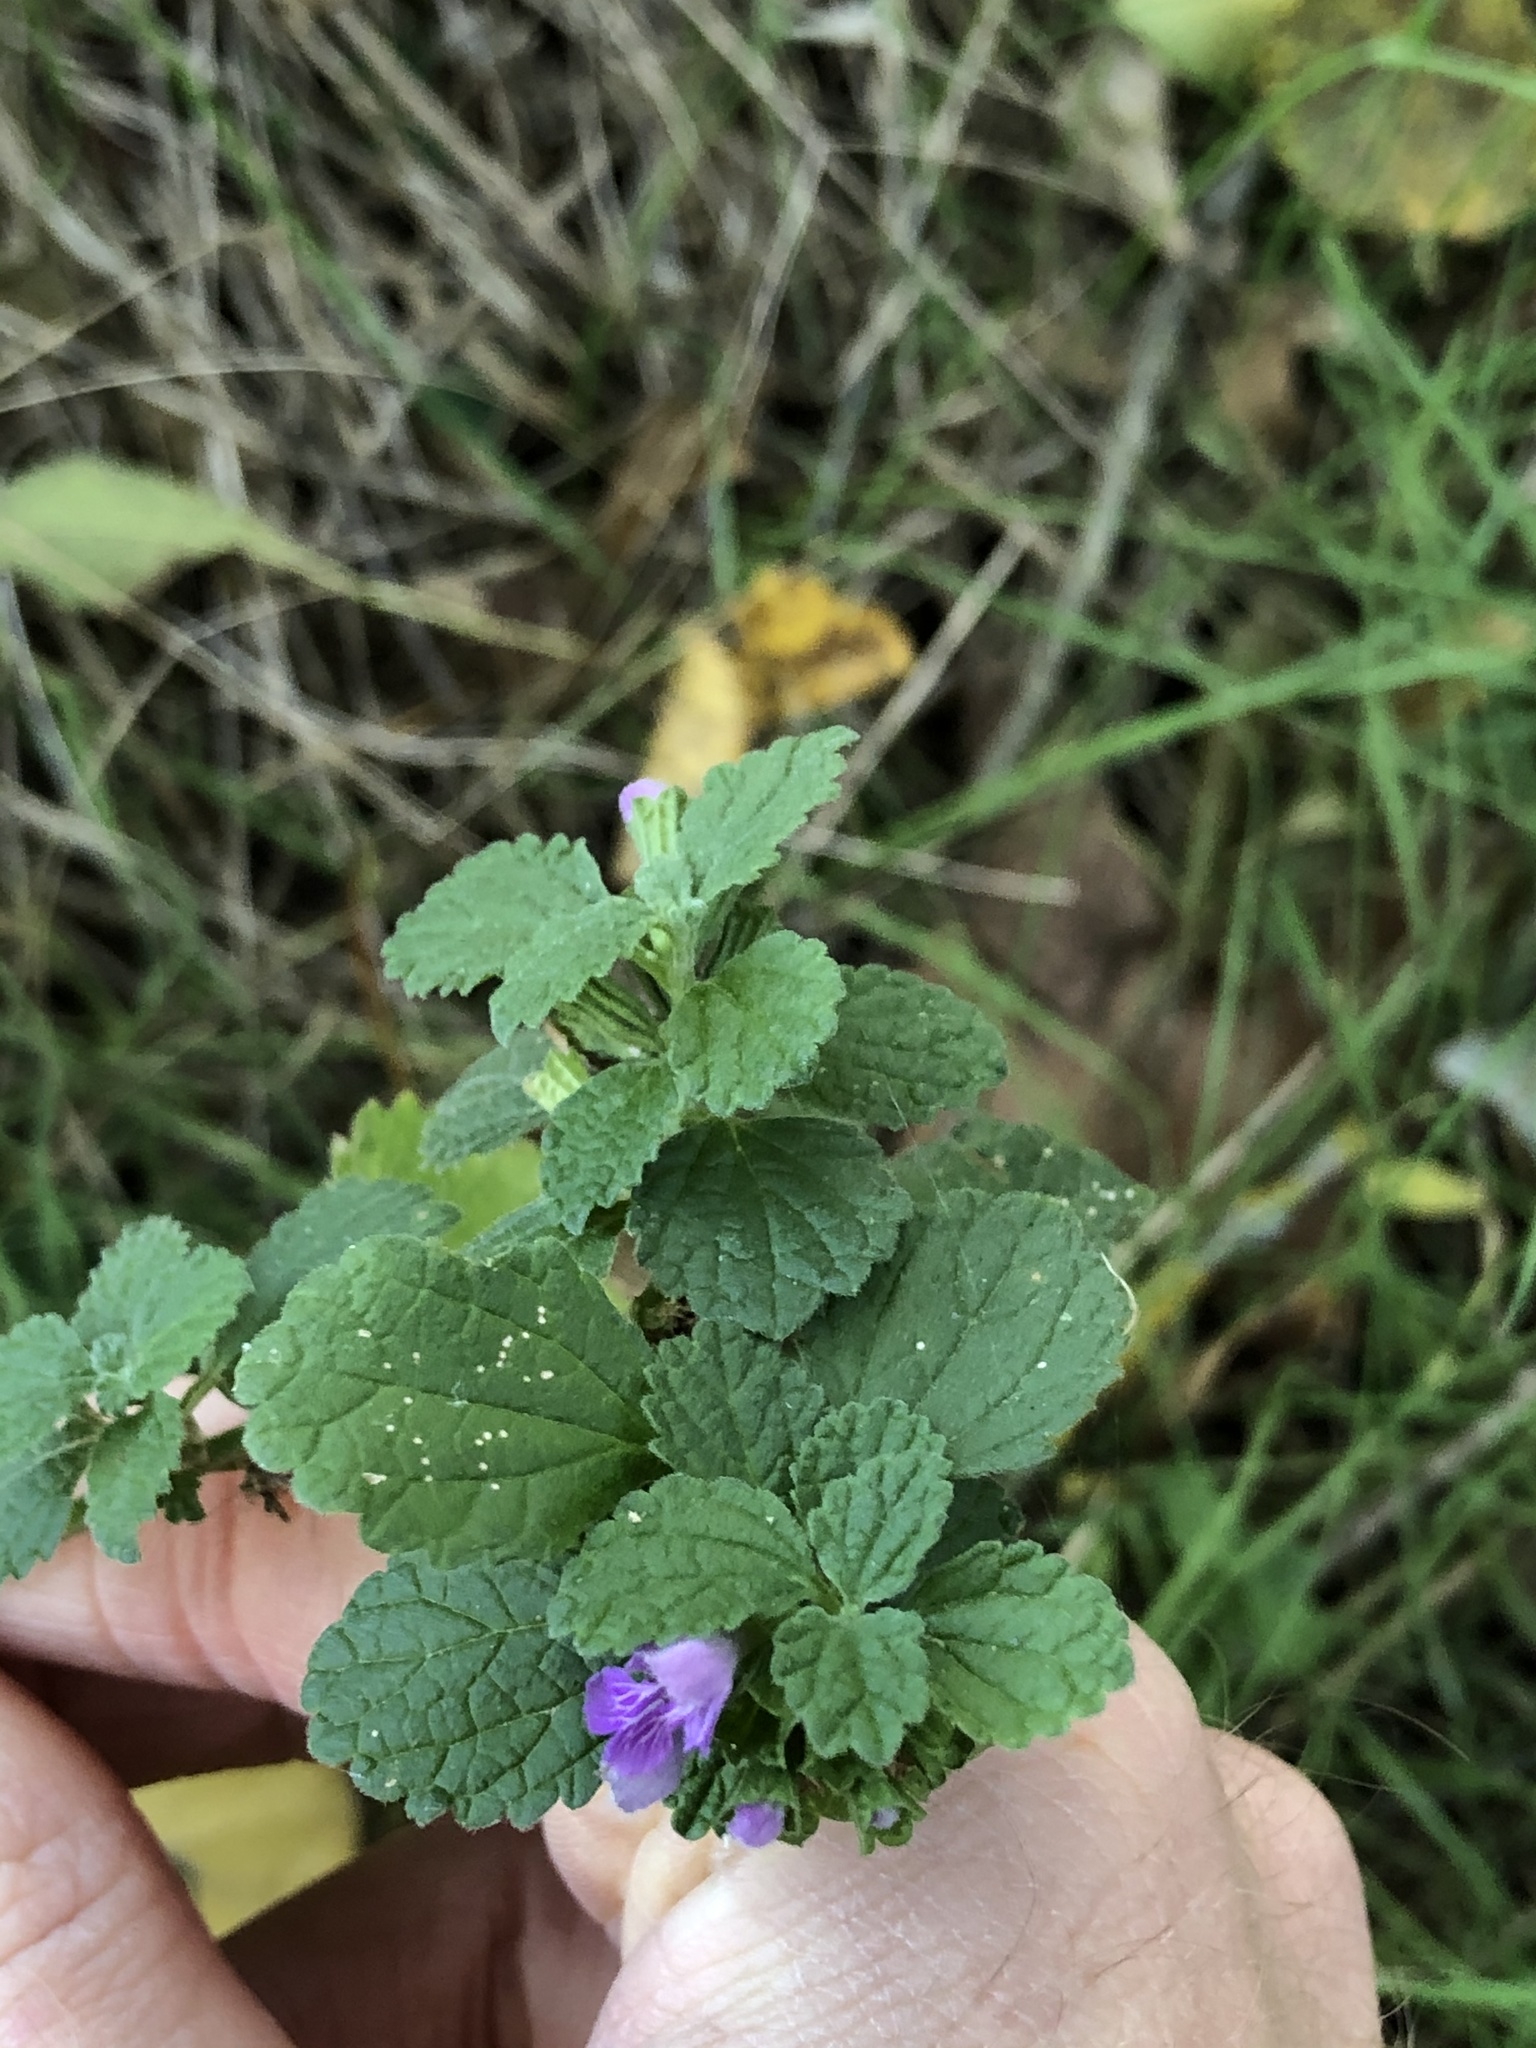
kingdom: Plantae
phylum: Tracheophyta
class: Magnoliopsida
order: Lamiales
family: Lamiaceae
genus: Ballota
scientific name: Ballota nigra
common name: Black horehound
